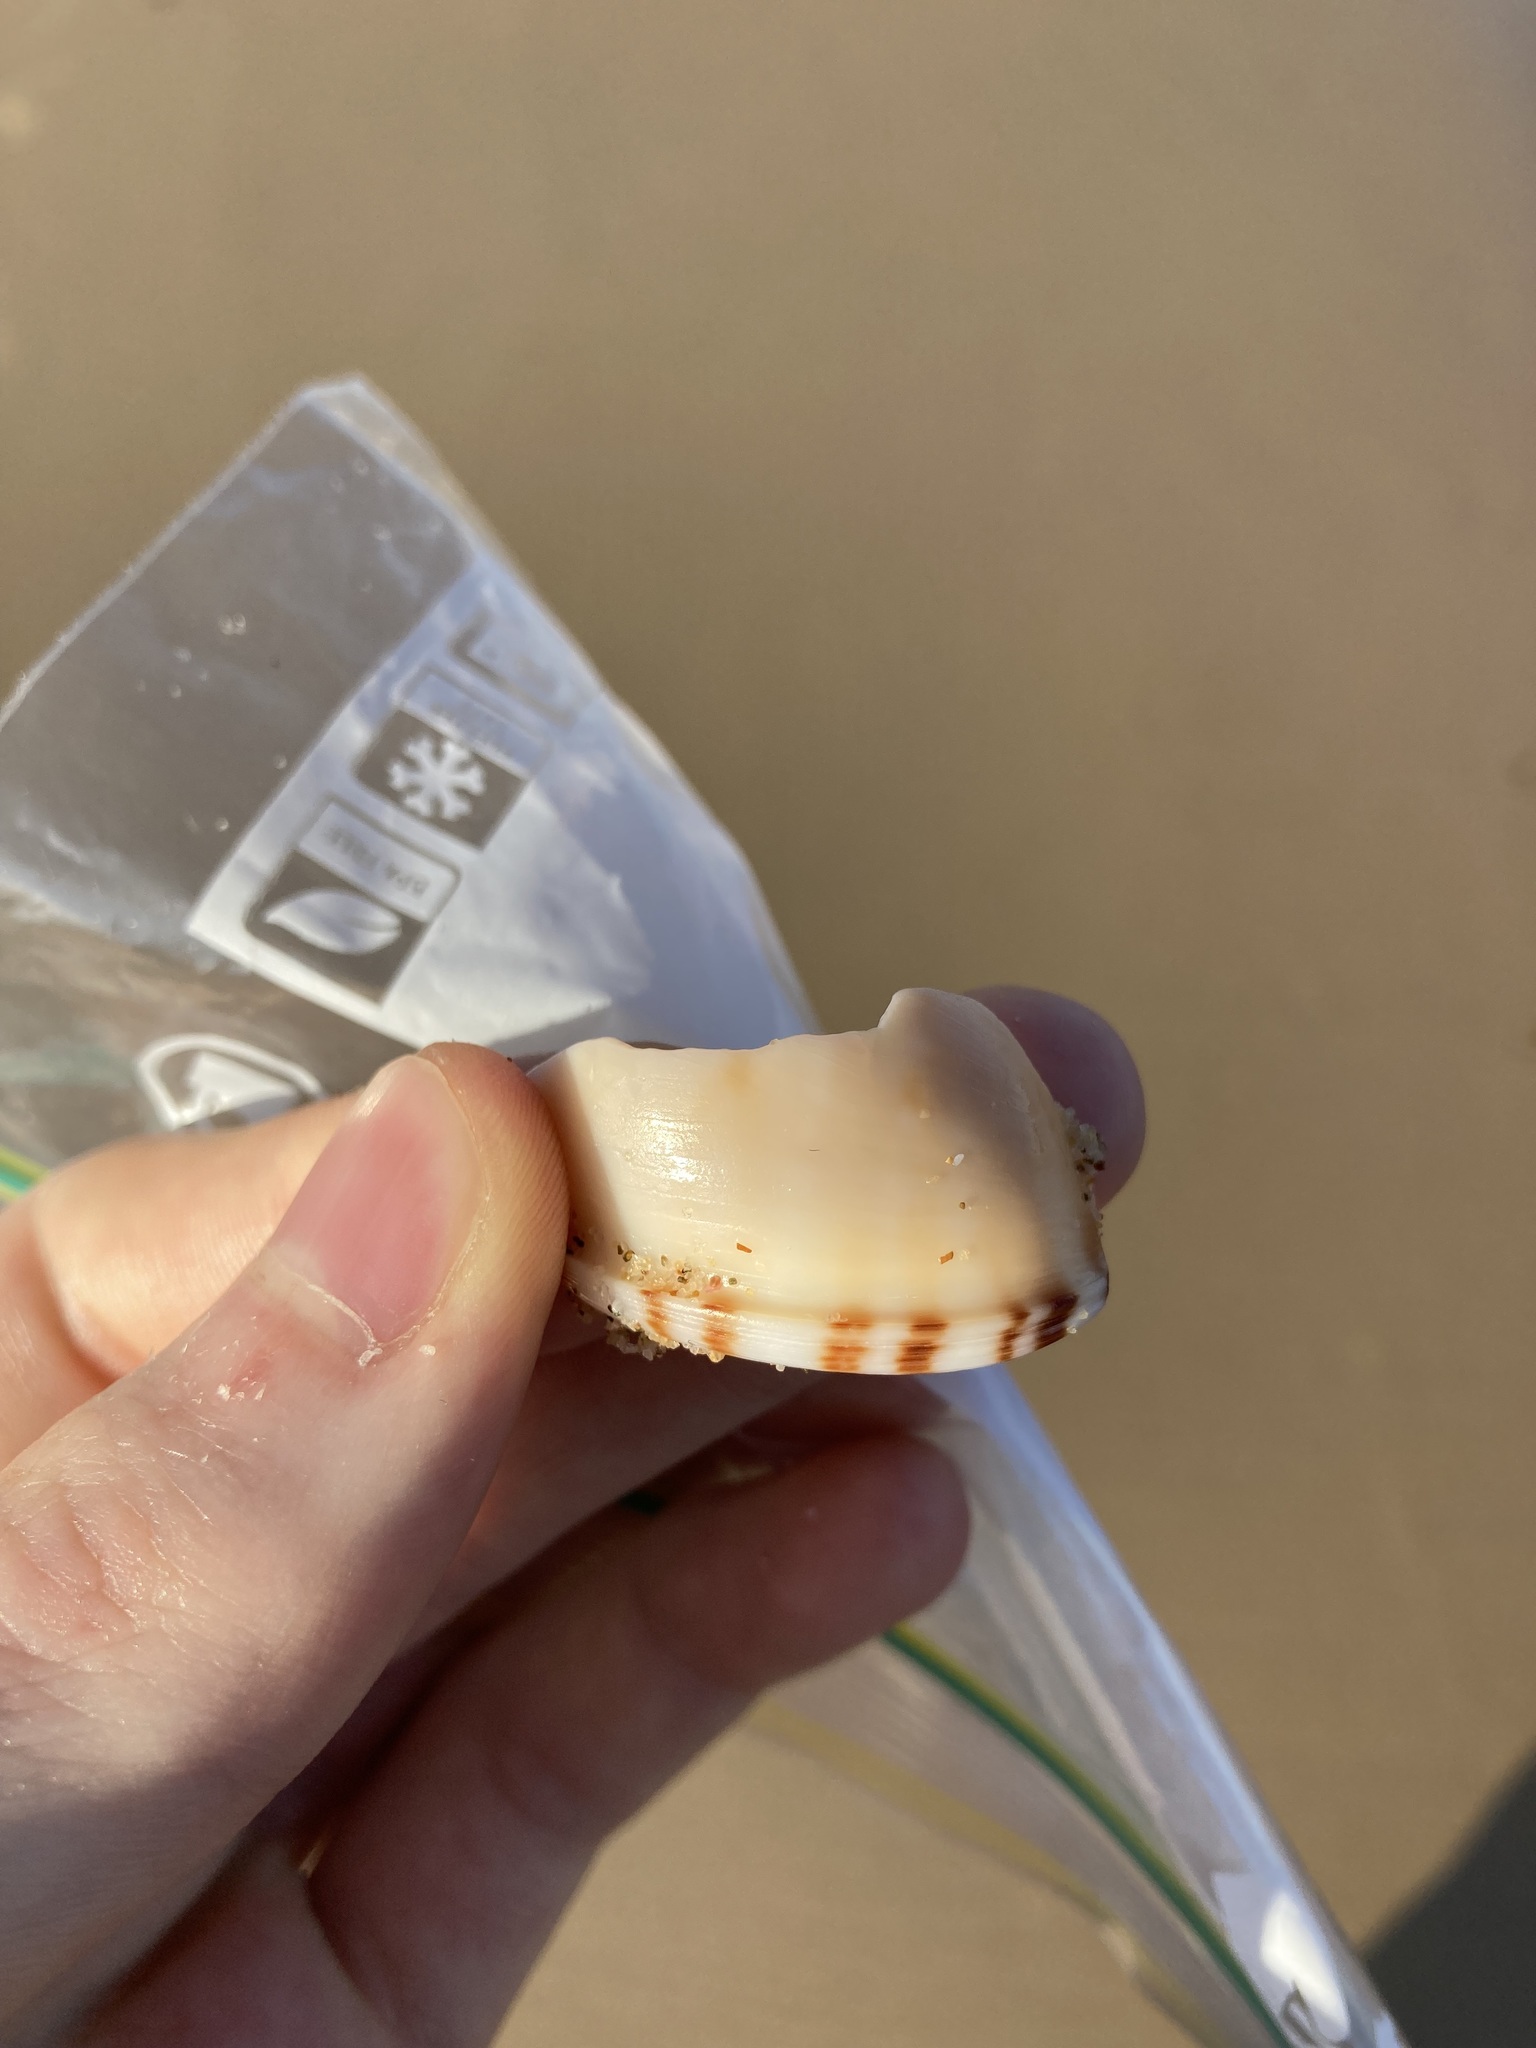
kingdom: Animalia
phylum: Mollusca
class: Gastropoda
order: Littorinimorpha
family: Cassidae
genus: Semicassis
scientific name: Semicassis labiata
